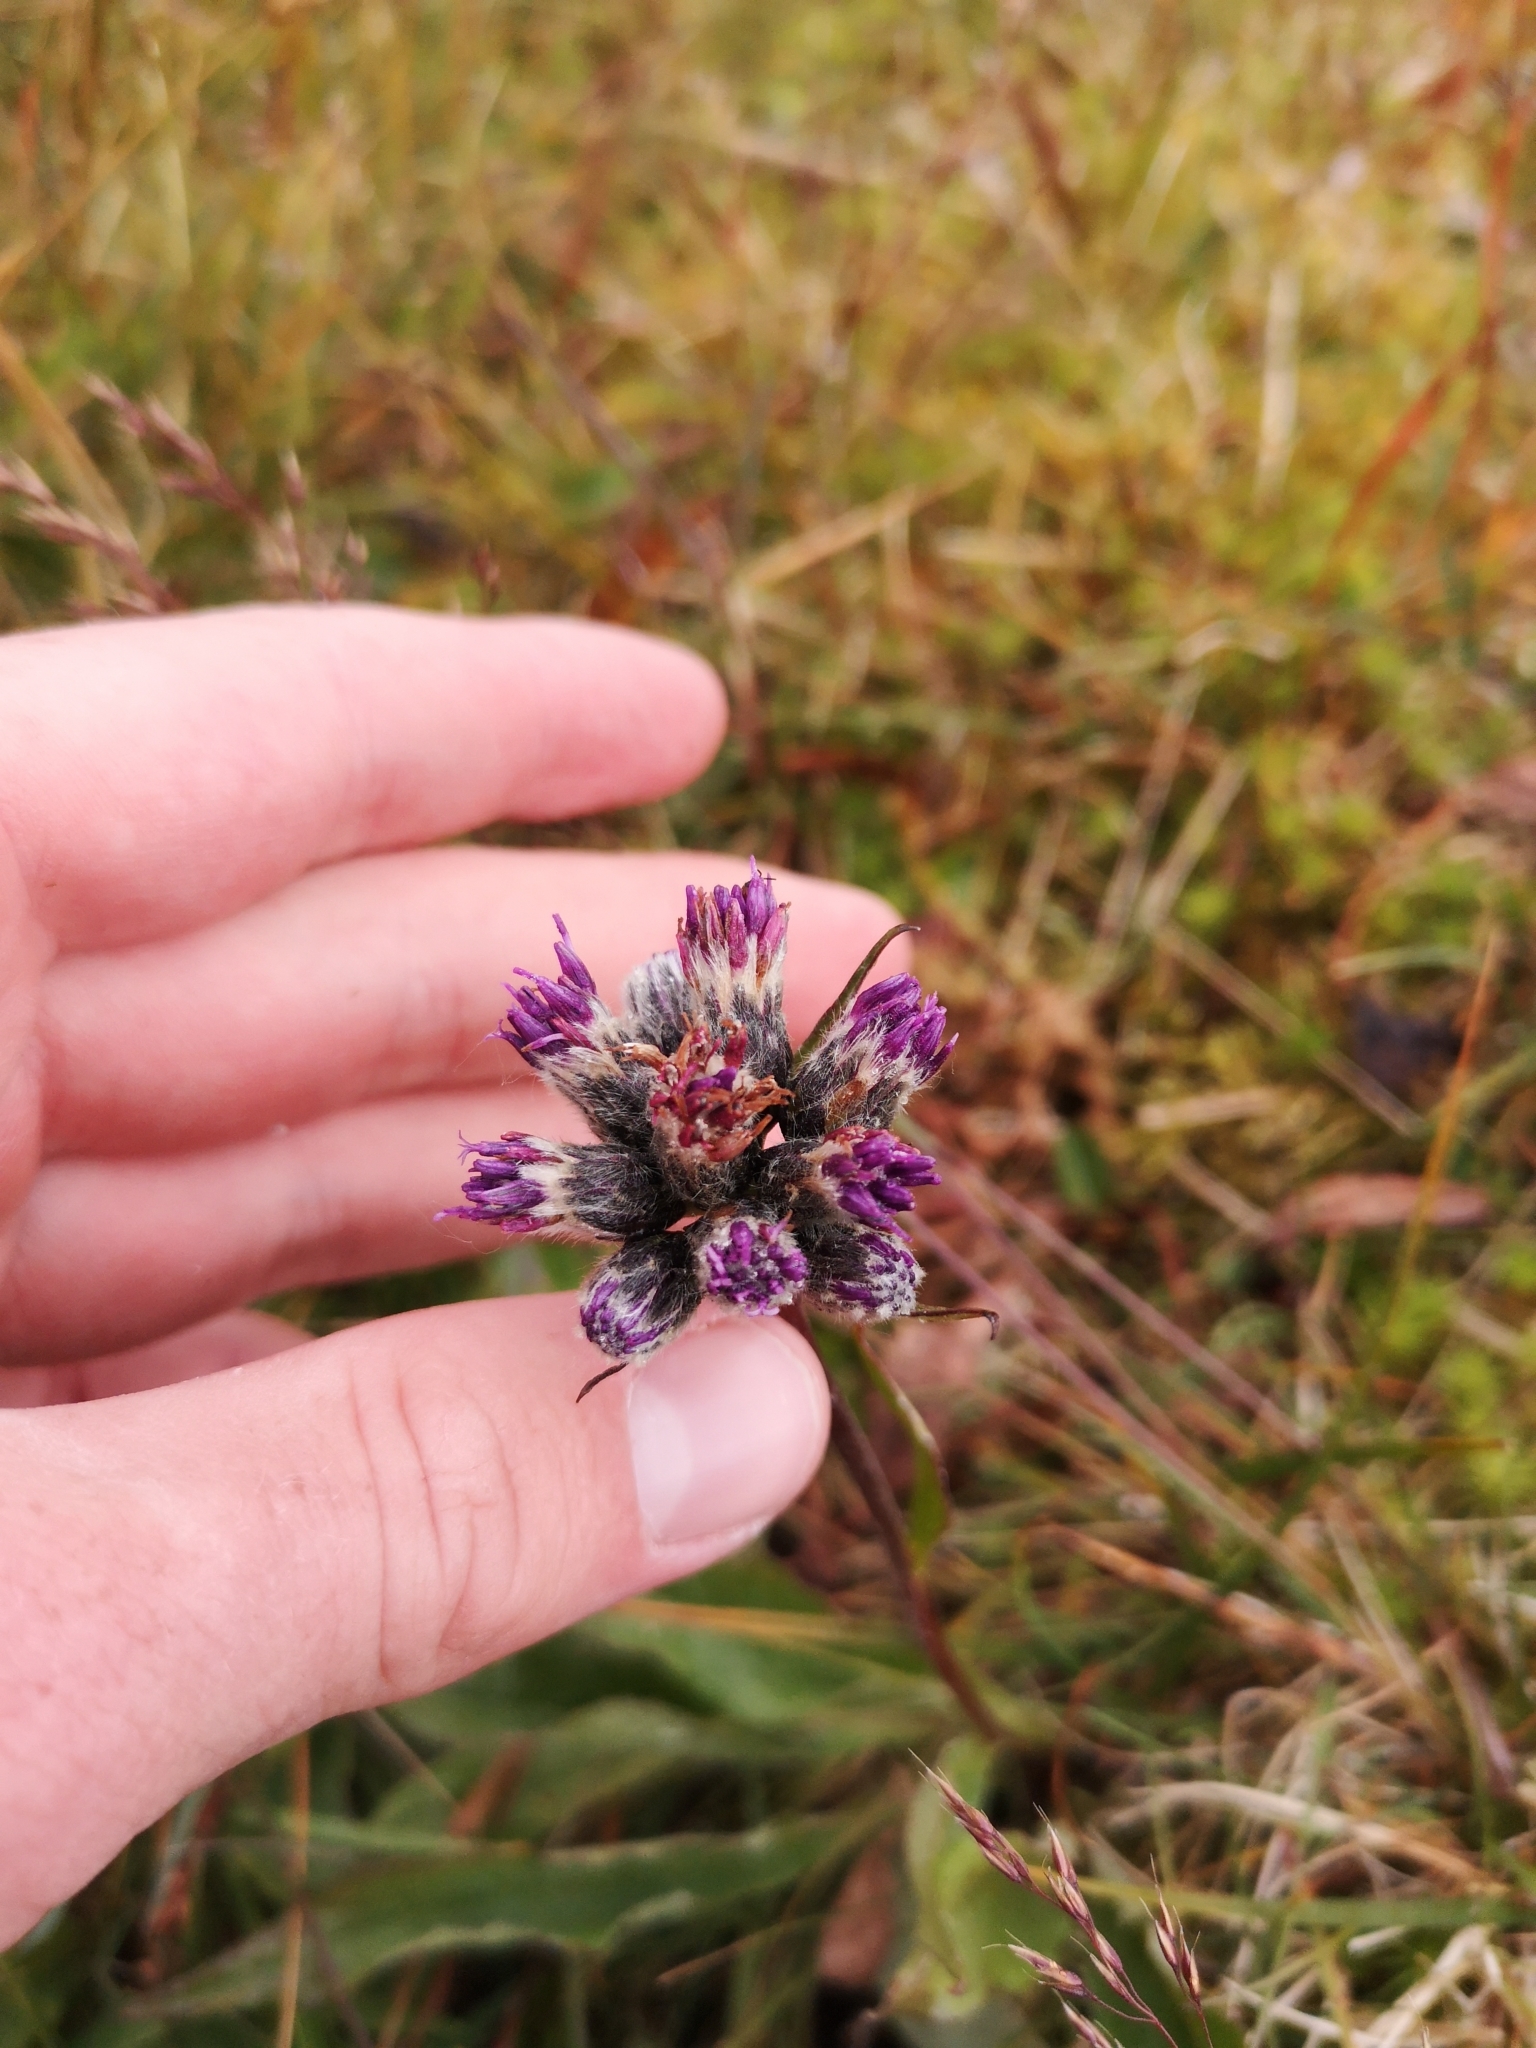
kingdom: Plantae
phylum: Tracheophyta
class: Magnoliopsida
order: Asterales
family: Asteraceae
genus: Saussurea
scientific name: Saussurea alpina
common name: Alpine saw-wort
